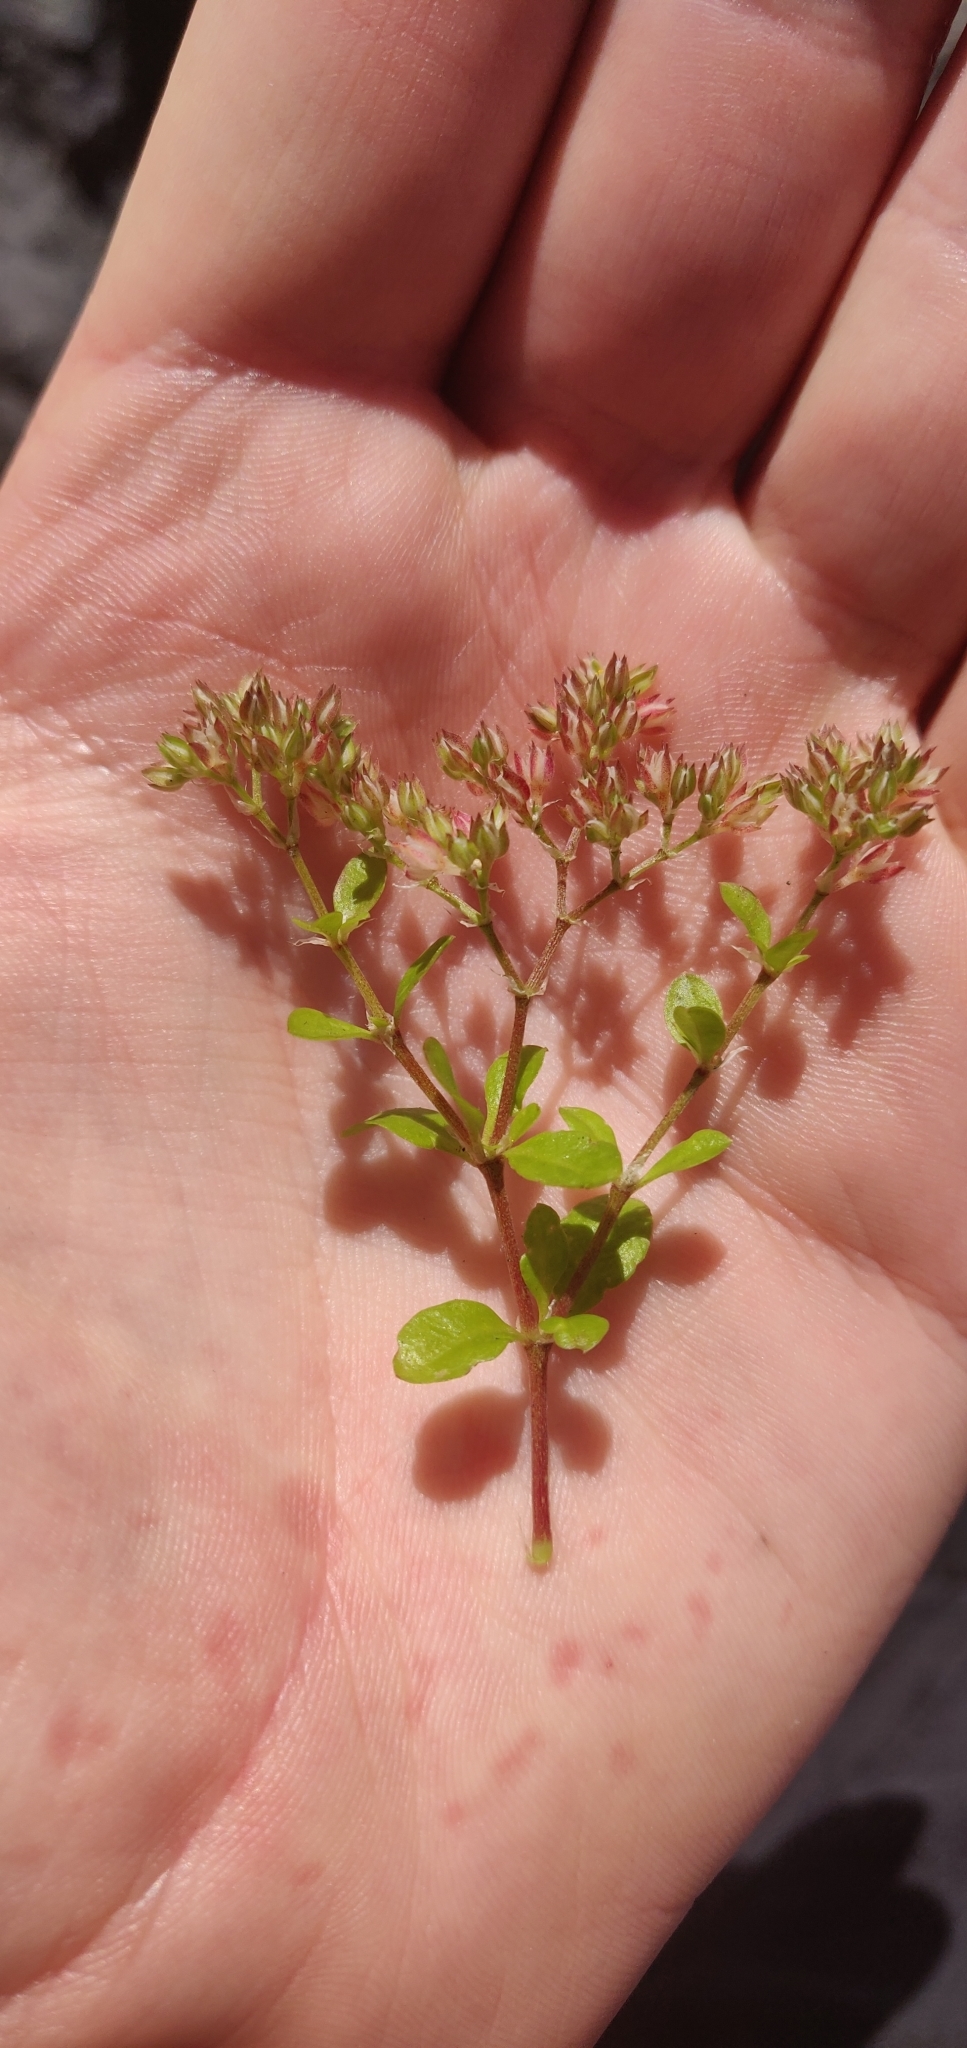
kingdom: Plantae
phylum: Tracheophyta
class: Magnoliopsida
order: Caryophyllales
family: Caryophyllaceae
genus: Polycarpon
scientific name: Polycarpon tetraphyllum
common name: Four-leaved all-seed
